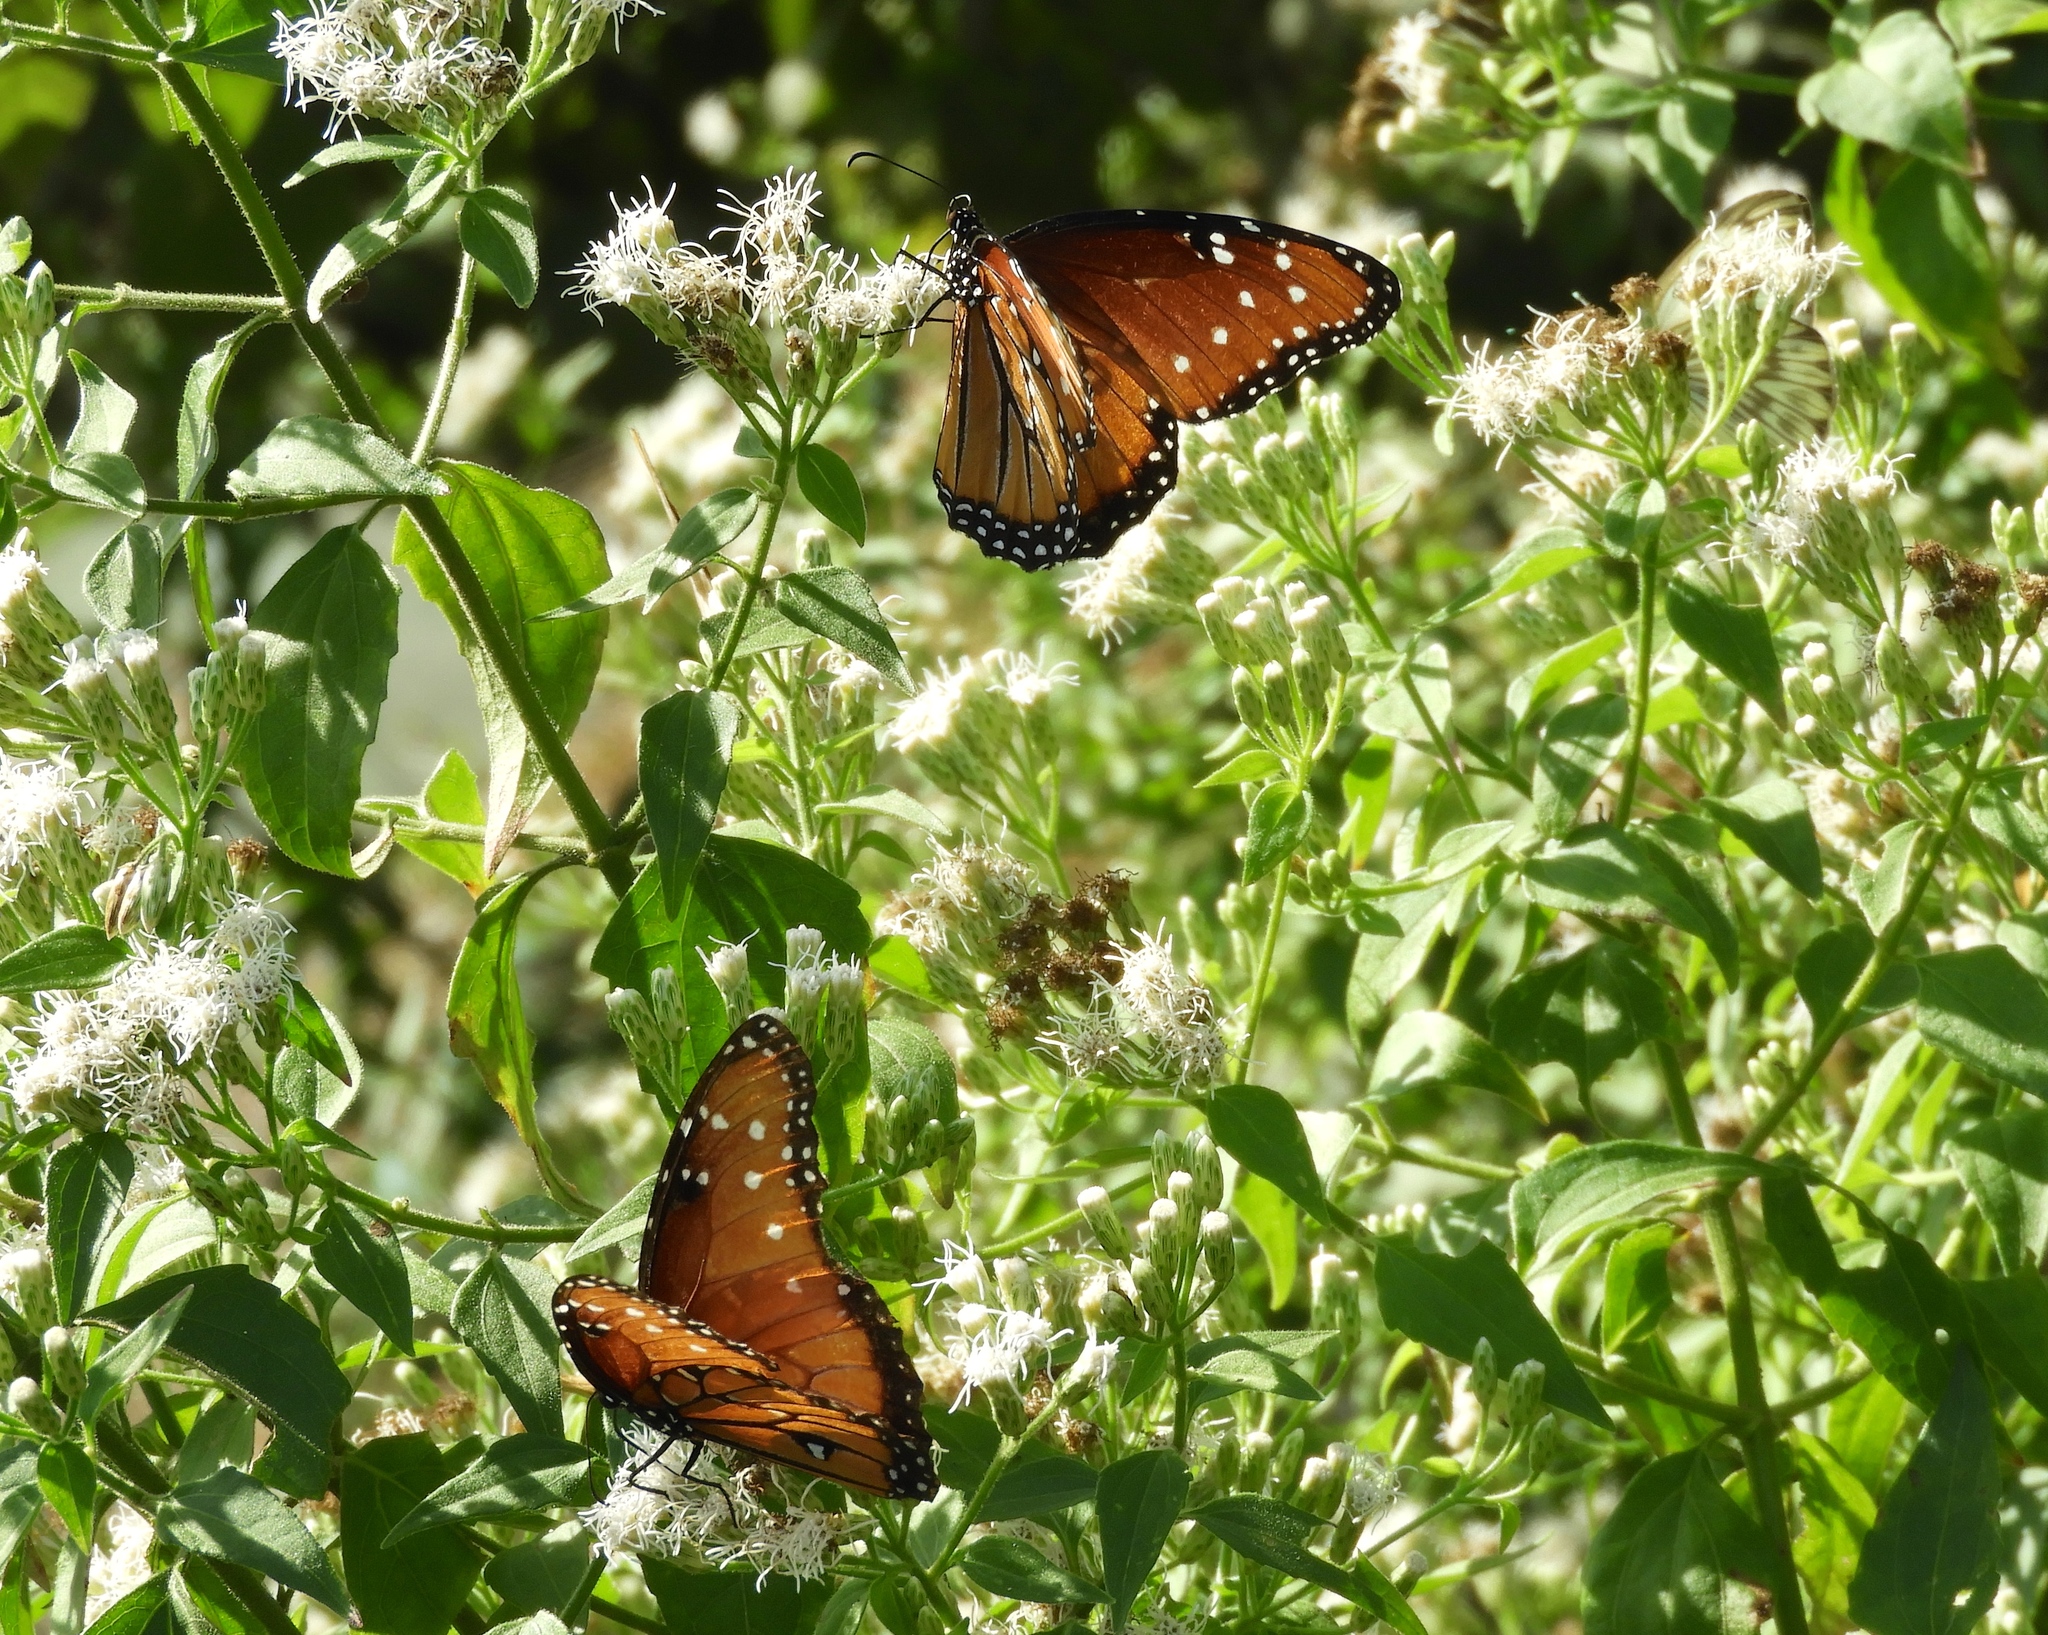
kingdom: Animalia
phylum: Arthropoda
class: Insecta
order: Lepidoptera
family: Nymphalidae
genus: Danaus
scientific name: Danaus gilippus
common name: Queen
